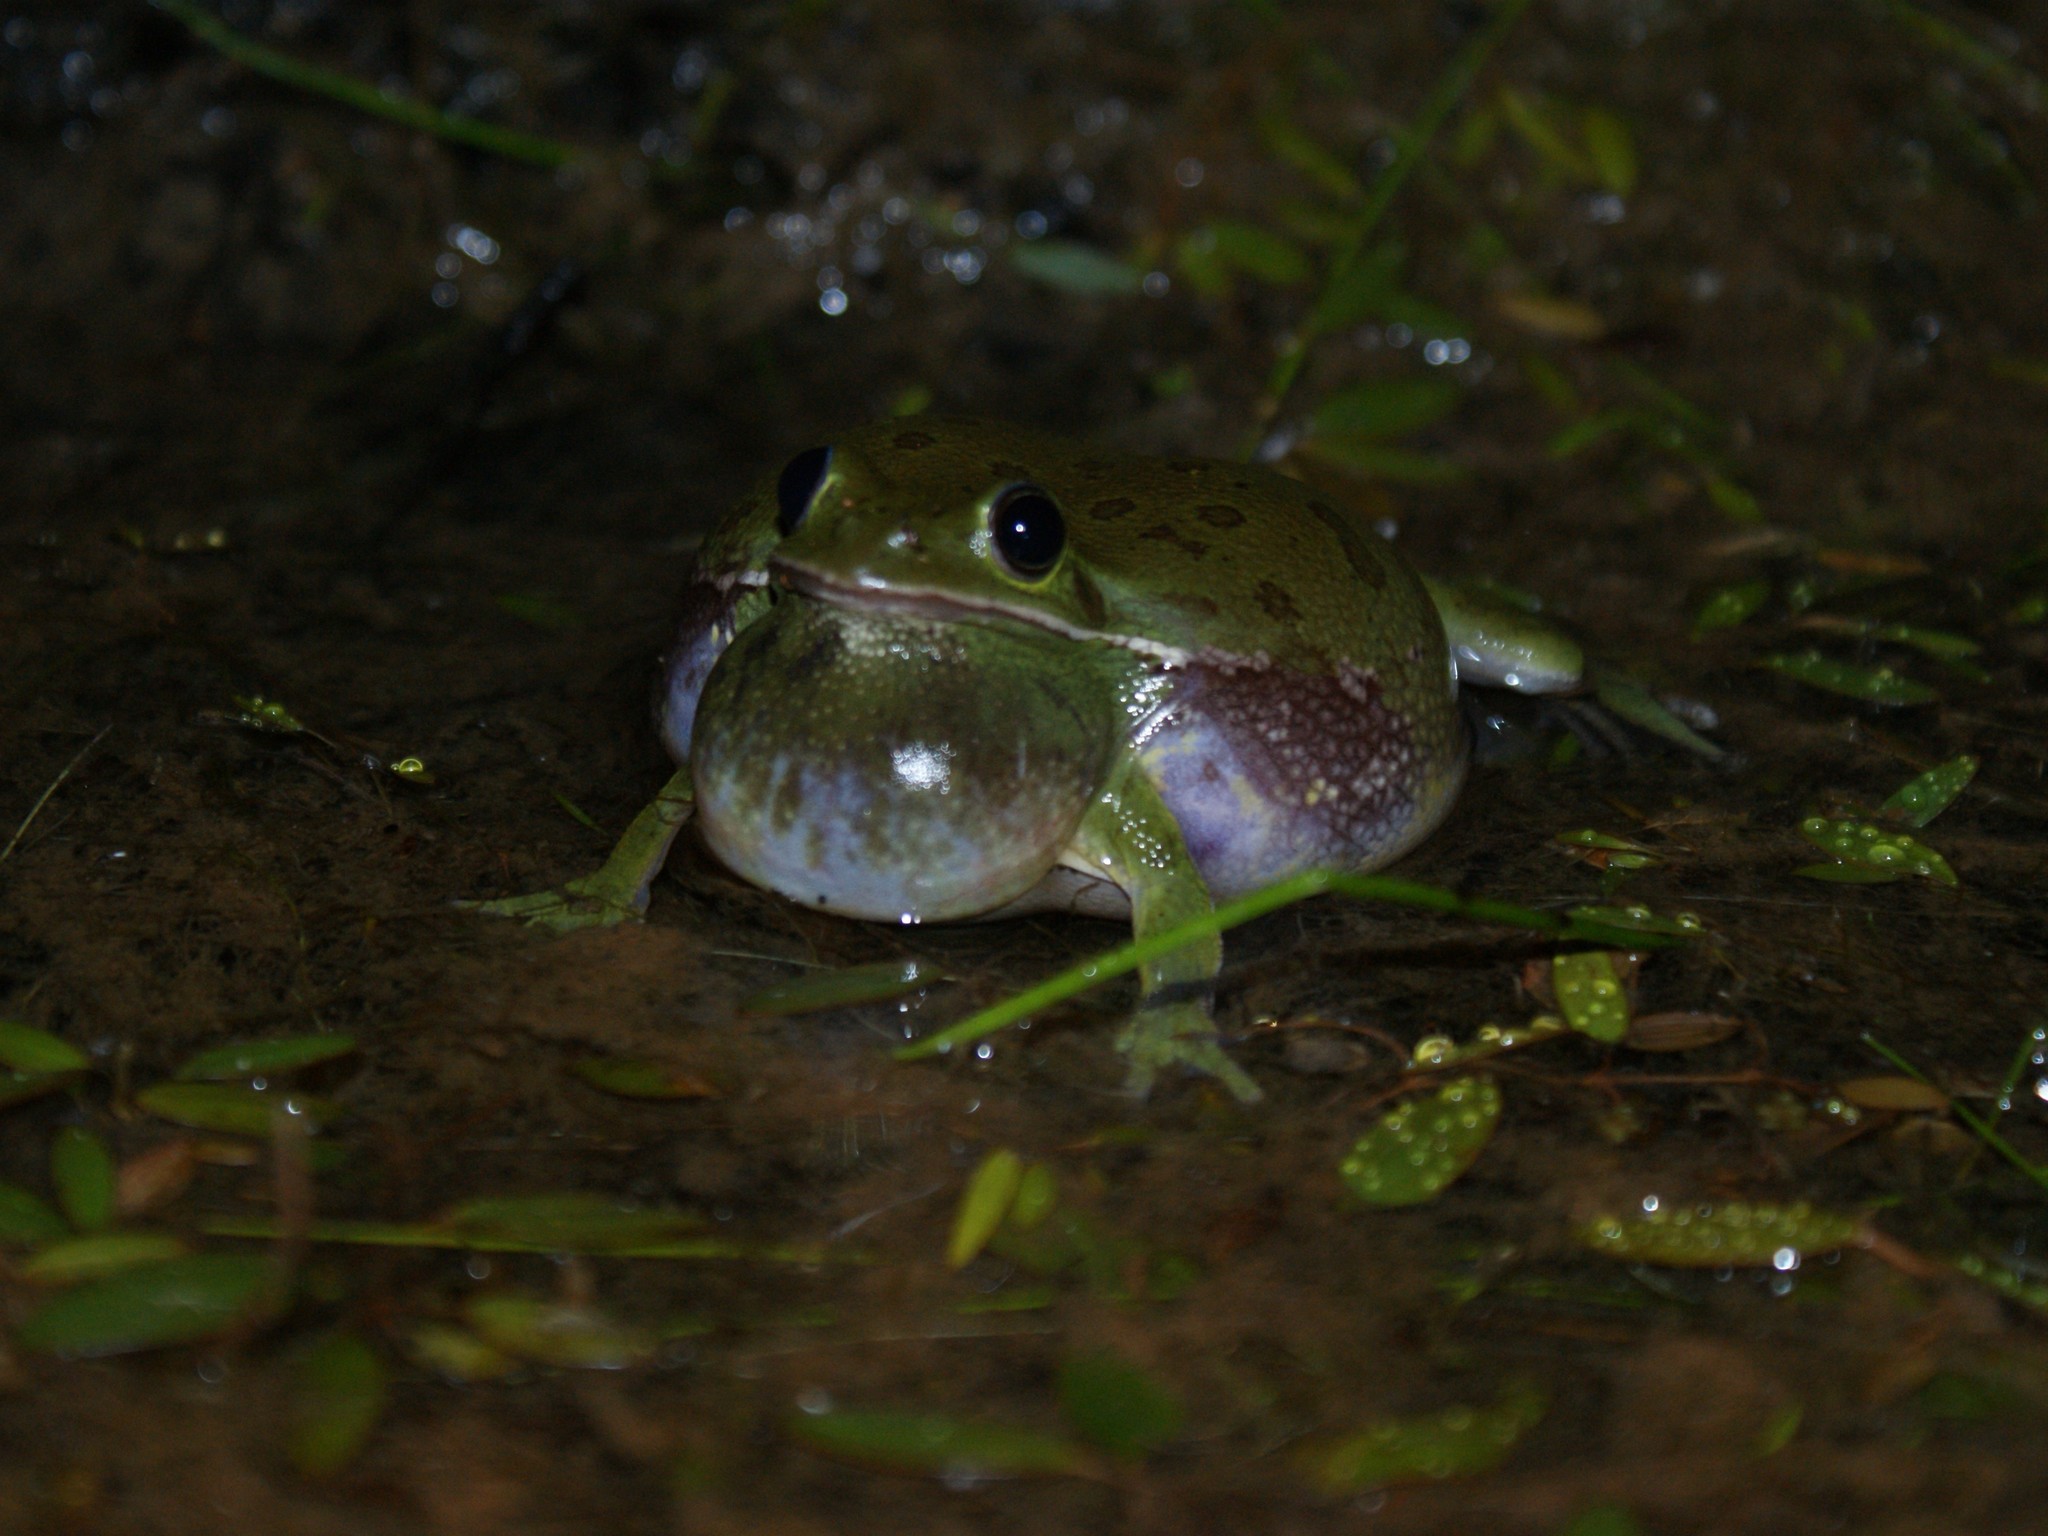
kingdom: Animalia
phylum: Chordata
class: Amphibia
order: Anura
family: Hylidae
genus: Dryophytes
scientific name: Dryophytes gratiosus
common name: Barking treefrog
